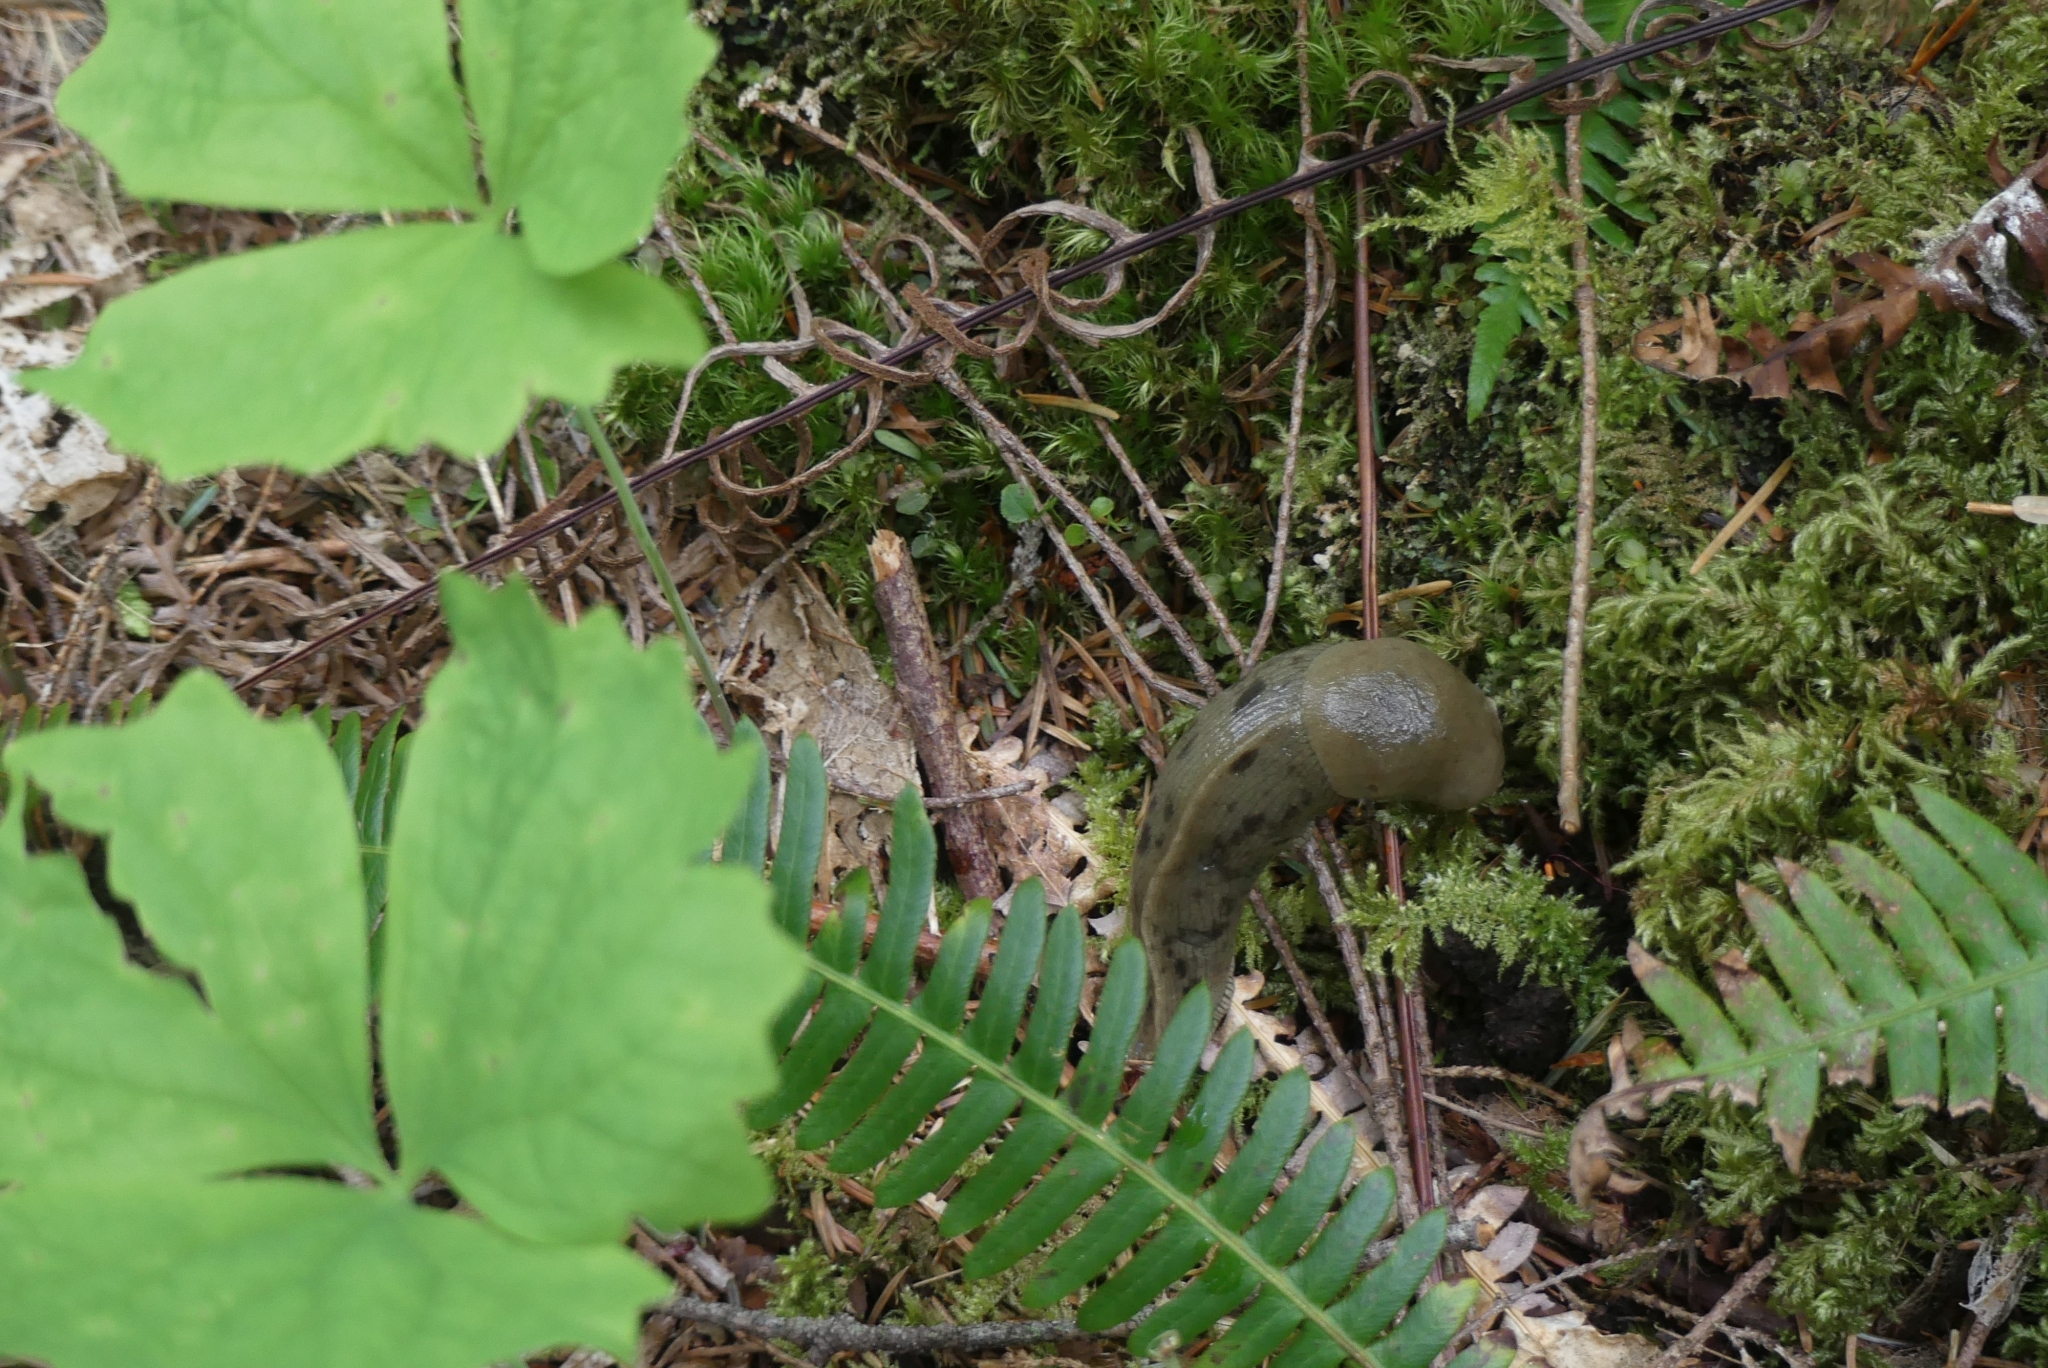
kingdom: Animalia
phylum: Mollusca
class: Gastropoda
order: Stylommatophora
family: Ariolimacidae
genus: Ariolimax
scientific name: Ariolimax columbianus
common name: Pacific banana slug
